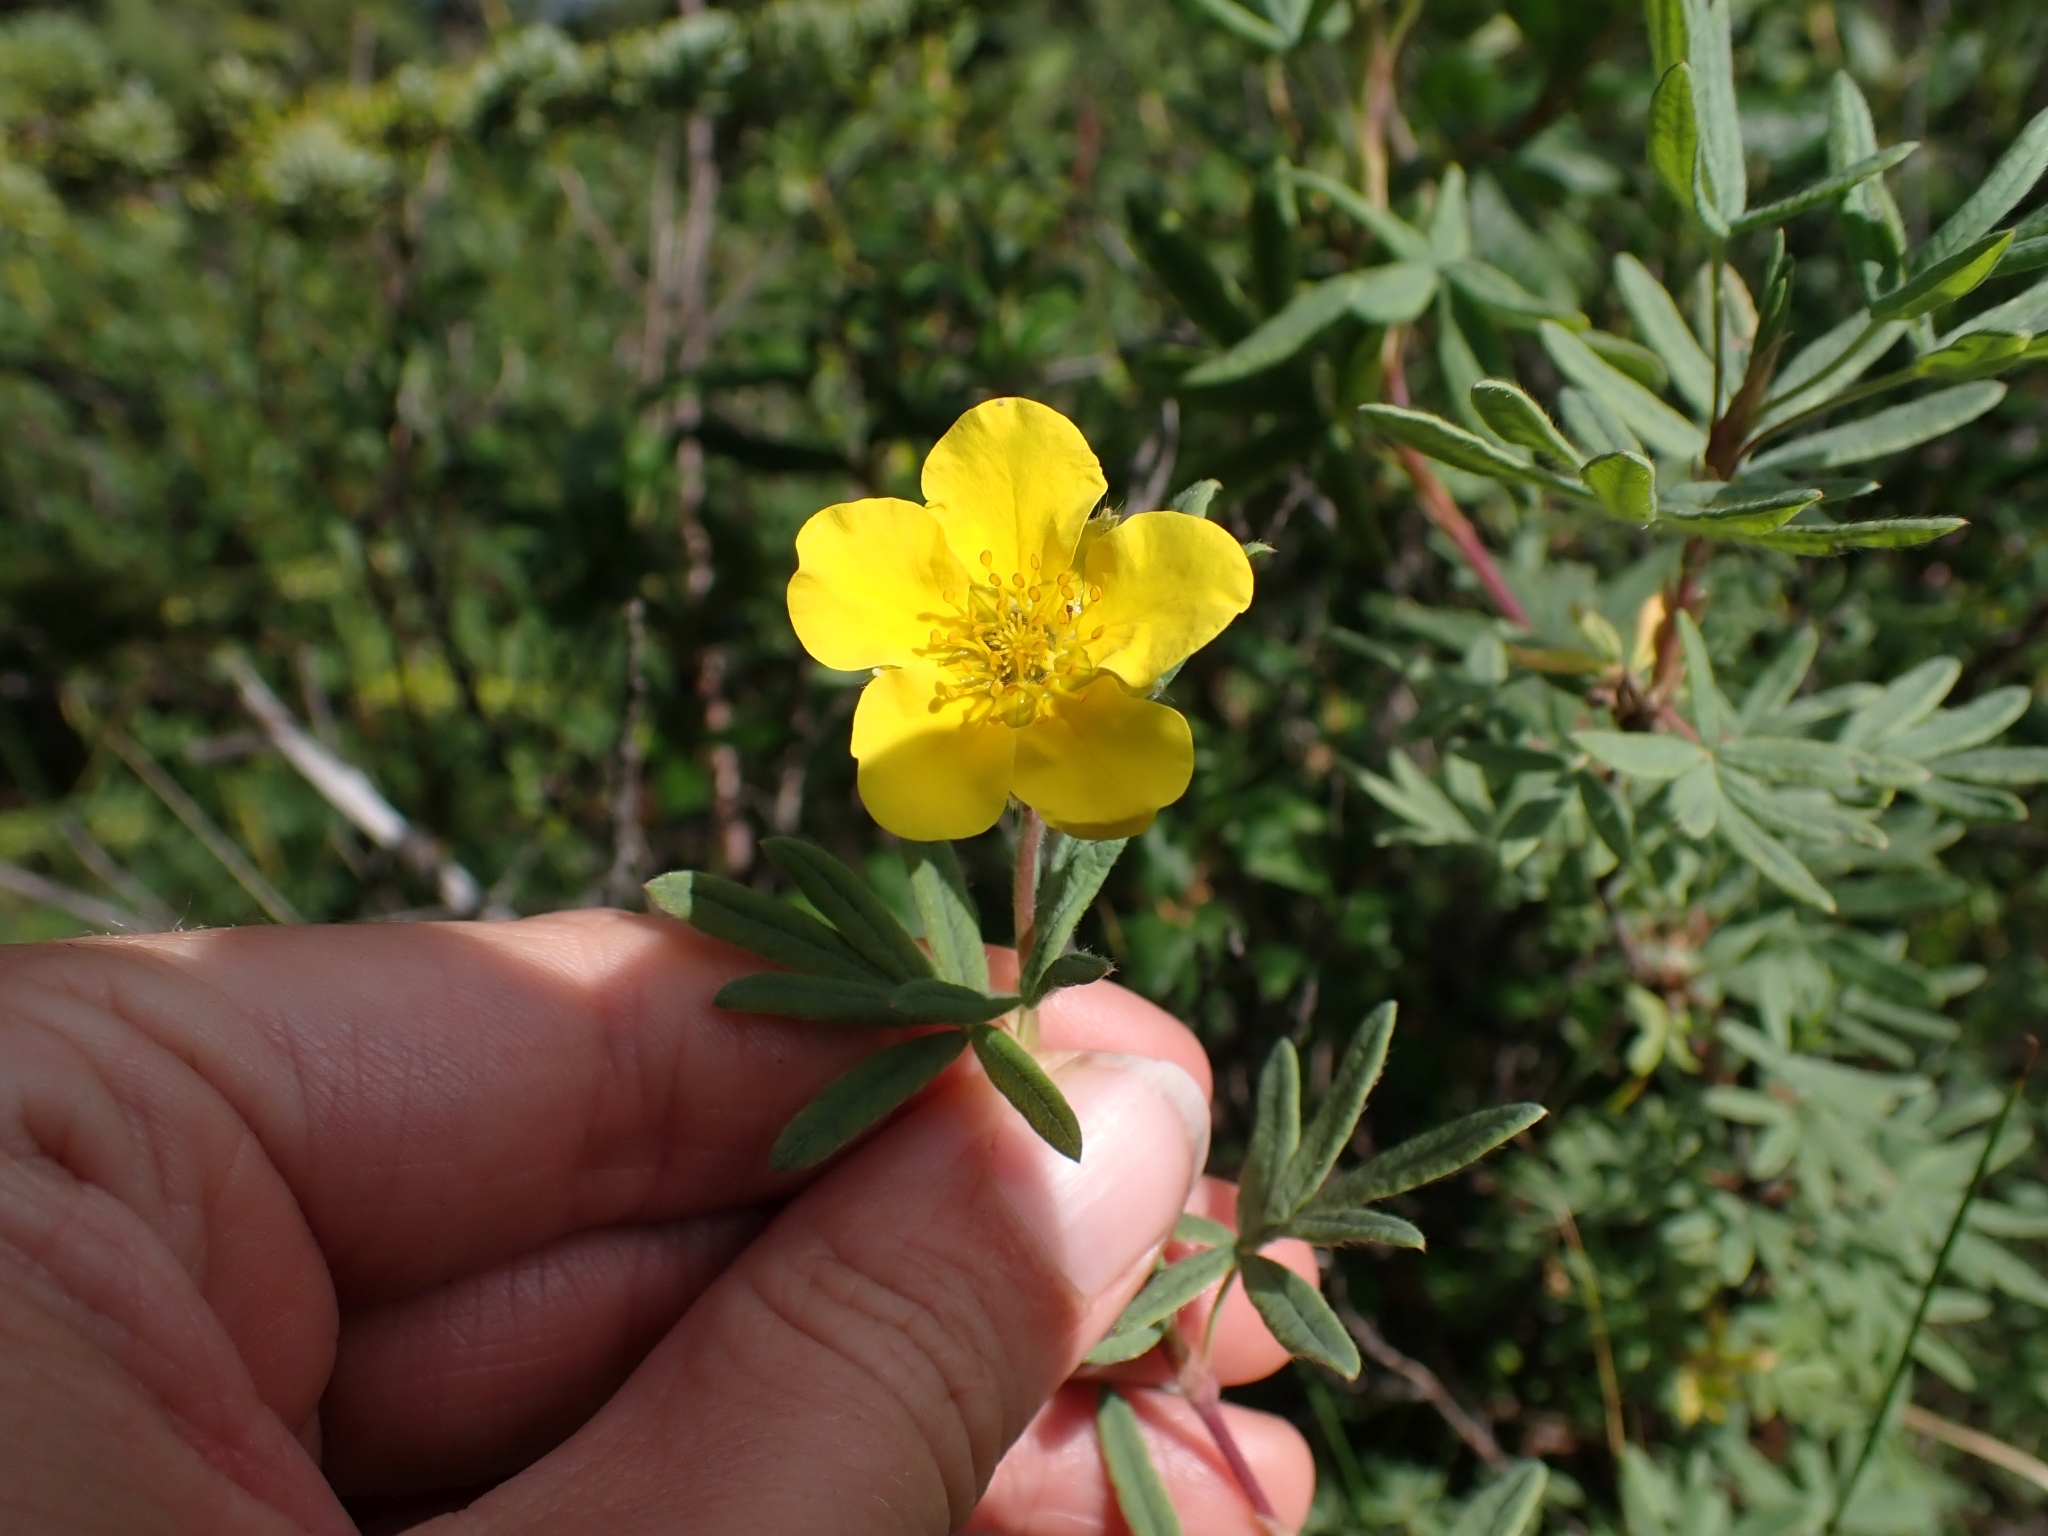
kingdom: Plantae
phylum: Tracheophyta
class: Magnoliopsida
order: Rosales
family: Rosaceae
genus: Dasiphora
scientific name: Dasiphora fruticosa
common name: Shrubby cinquefoil
